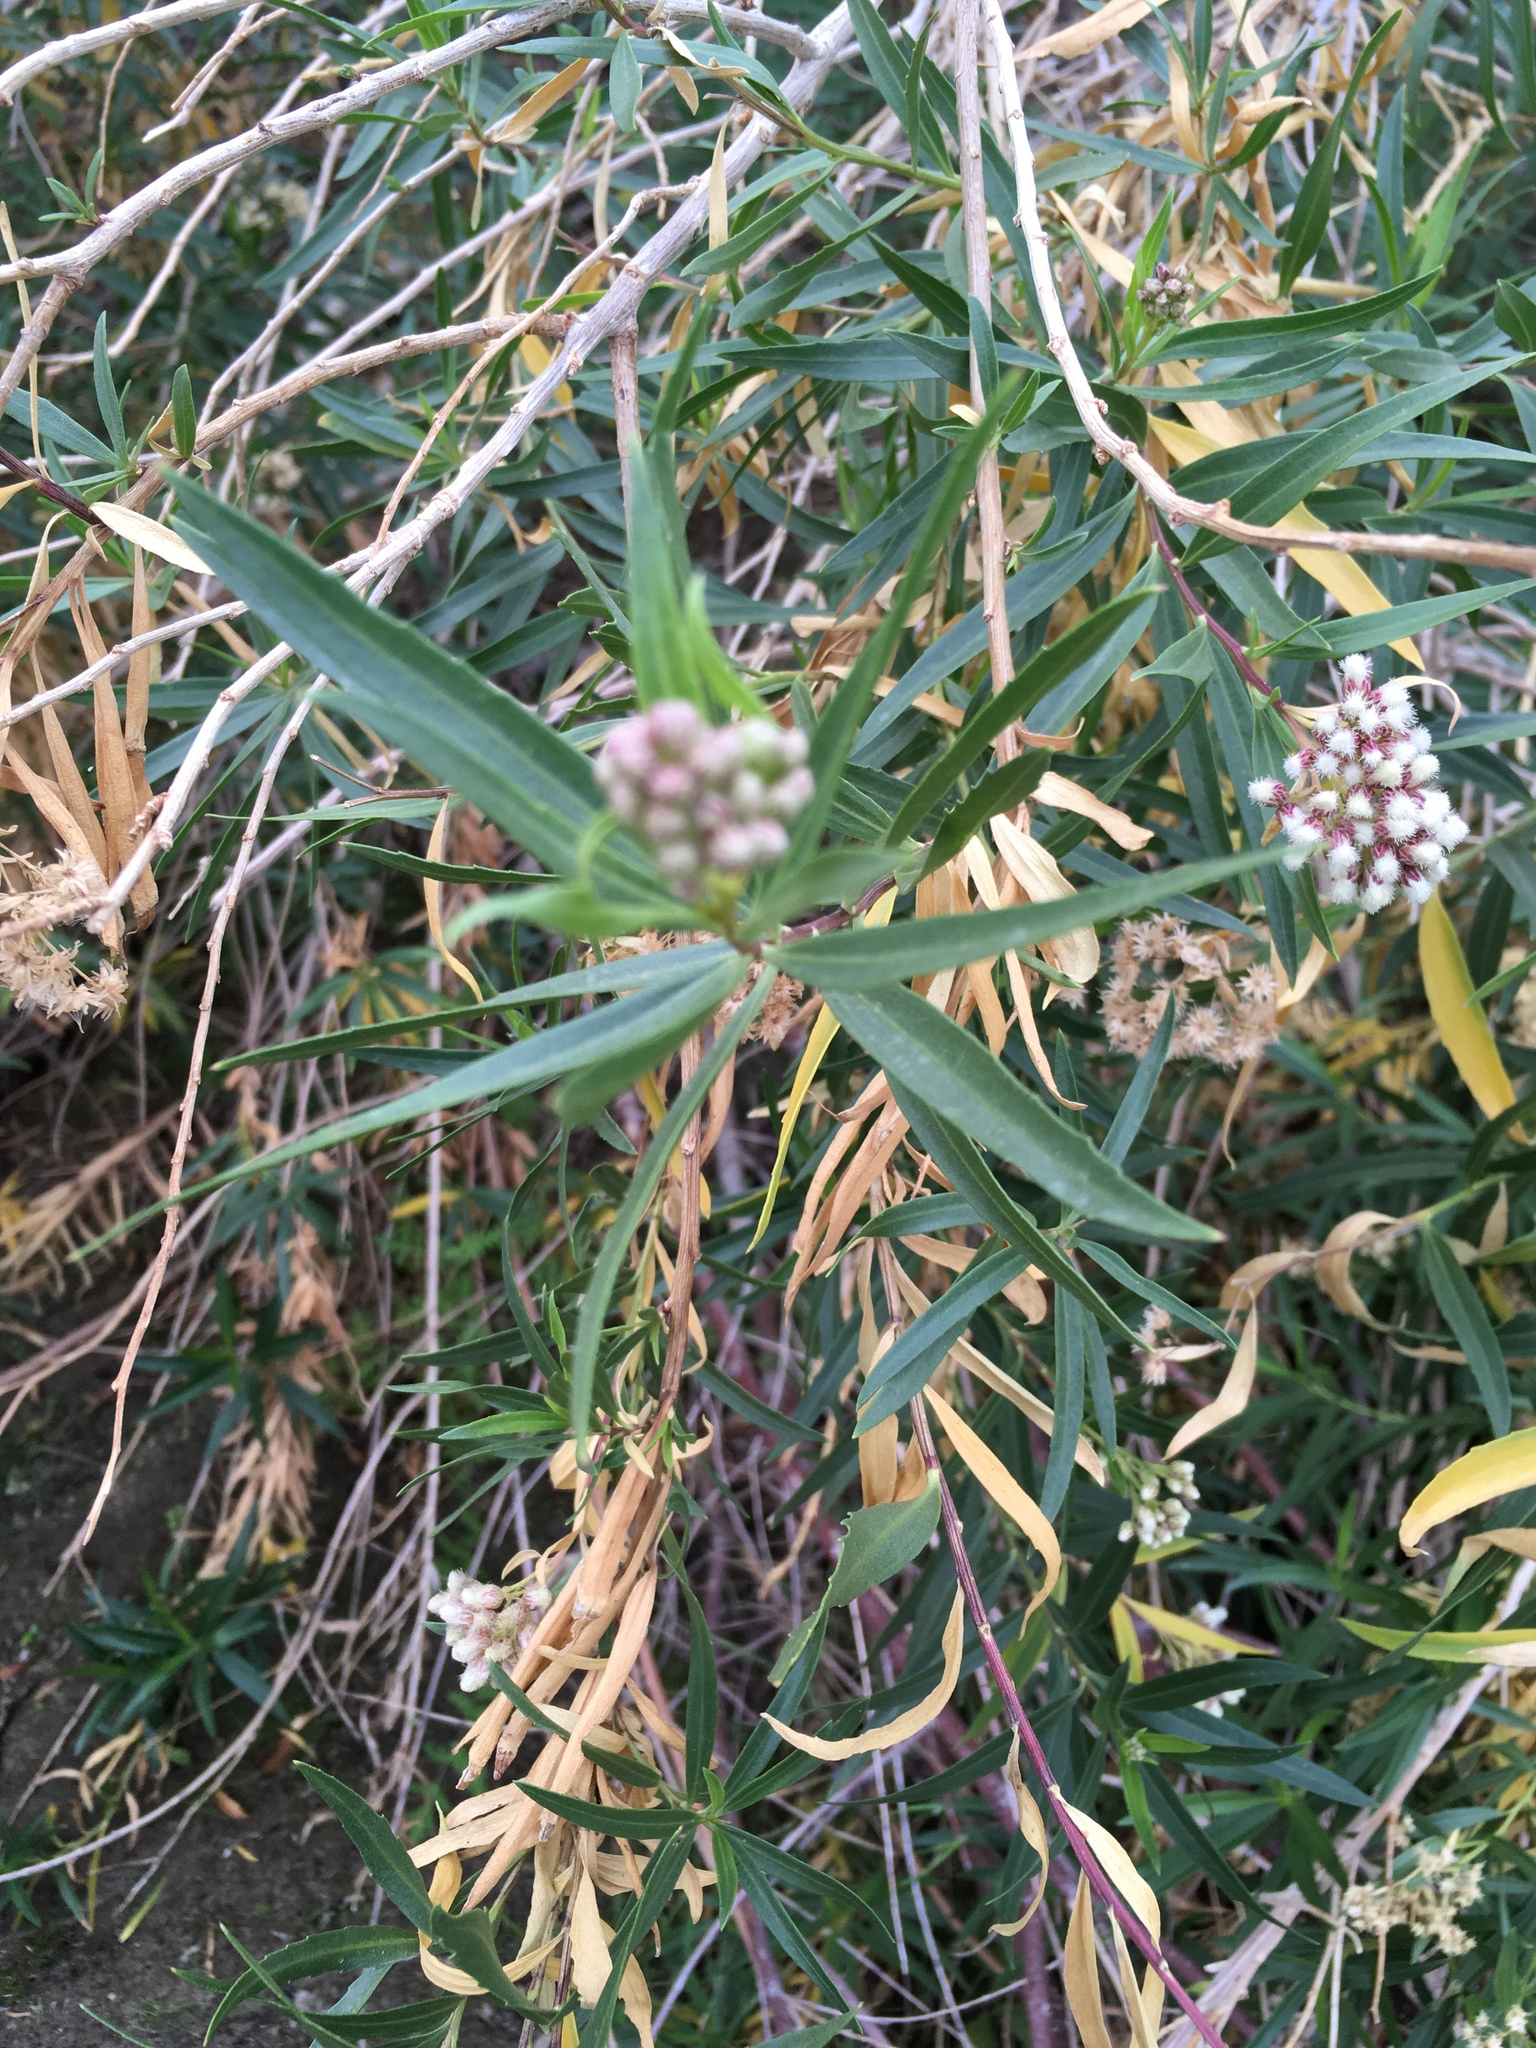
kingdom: Plantae
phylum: Tracheophyta
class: Magnoliopsida
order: Asterales
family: Asteraceae
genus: Baccharis
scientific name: Baccharis salicifolia
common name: Sticky baccharis
